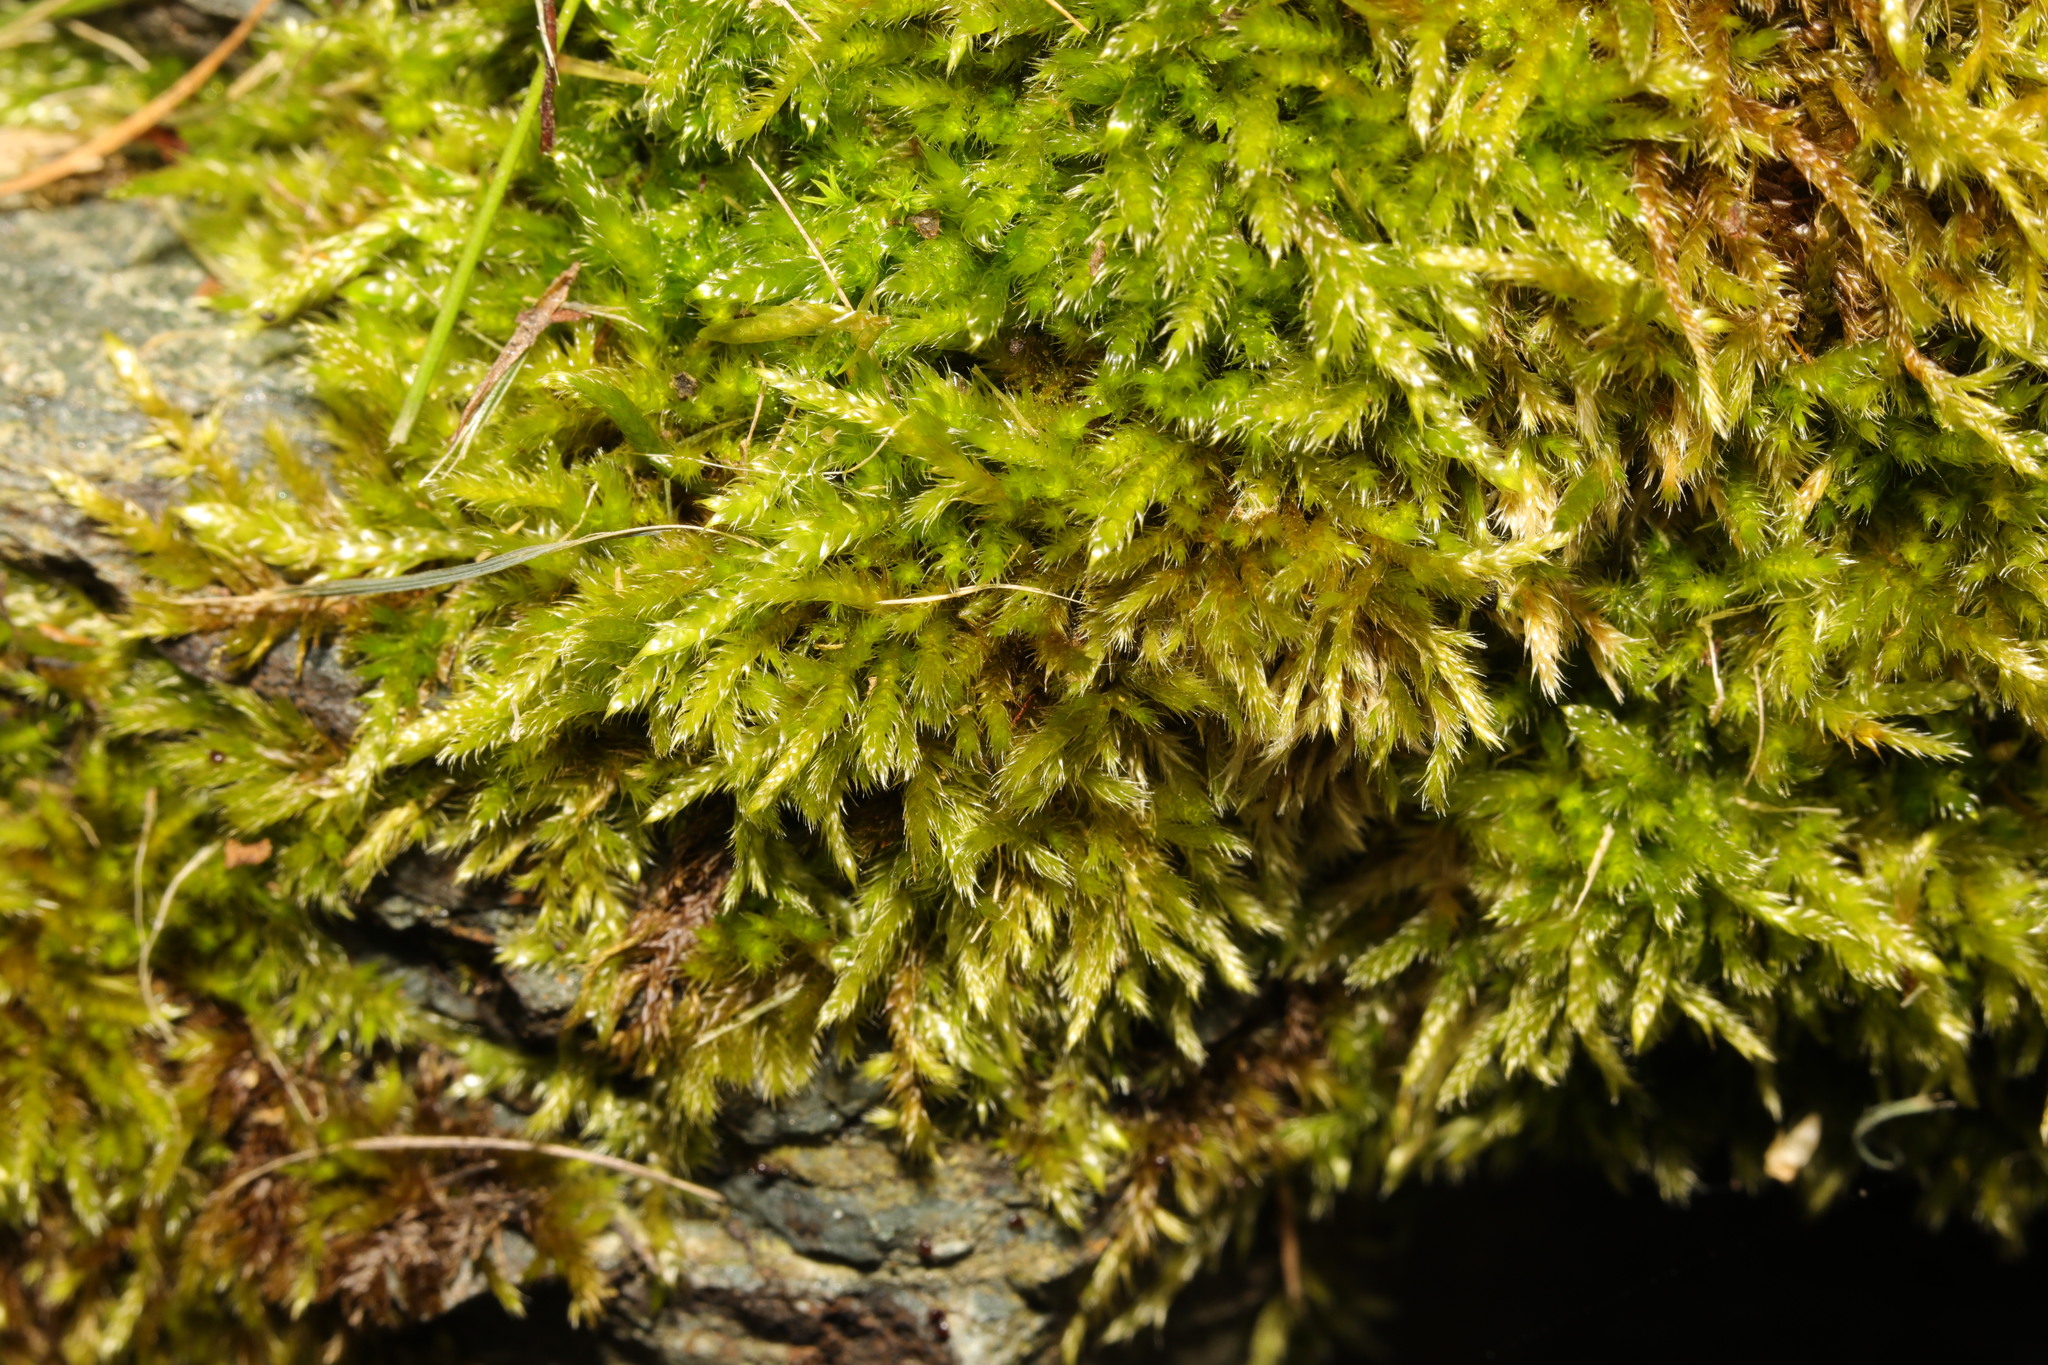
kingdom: Plantae
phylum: Bryophyta
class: Bryopsida
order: Hypnales
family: Brachytheciaceae
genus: Homalothecium
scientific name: Homalothecium lutescens
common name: Yellow feather-moss
